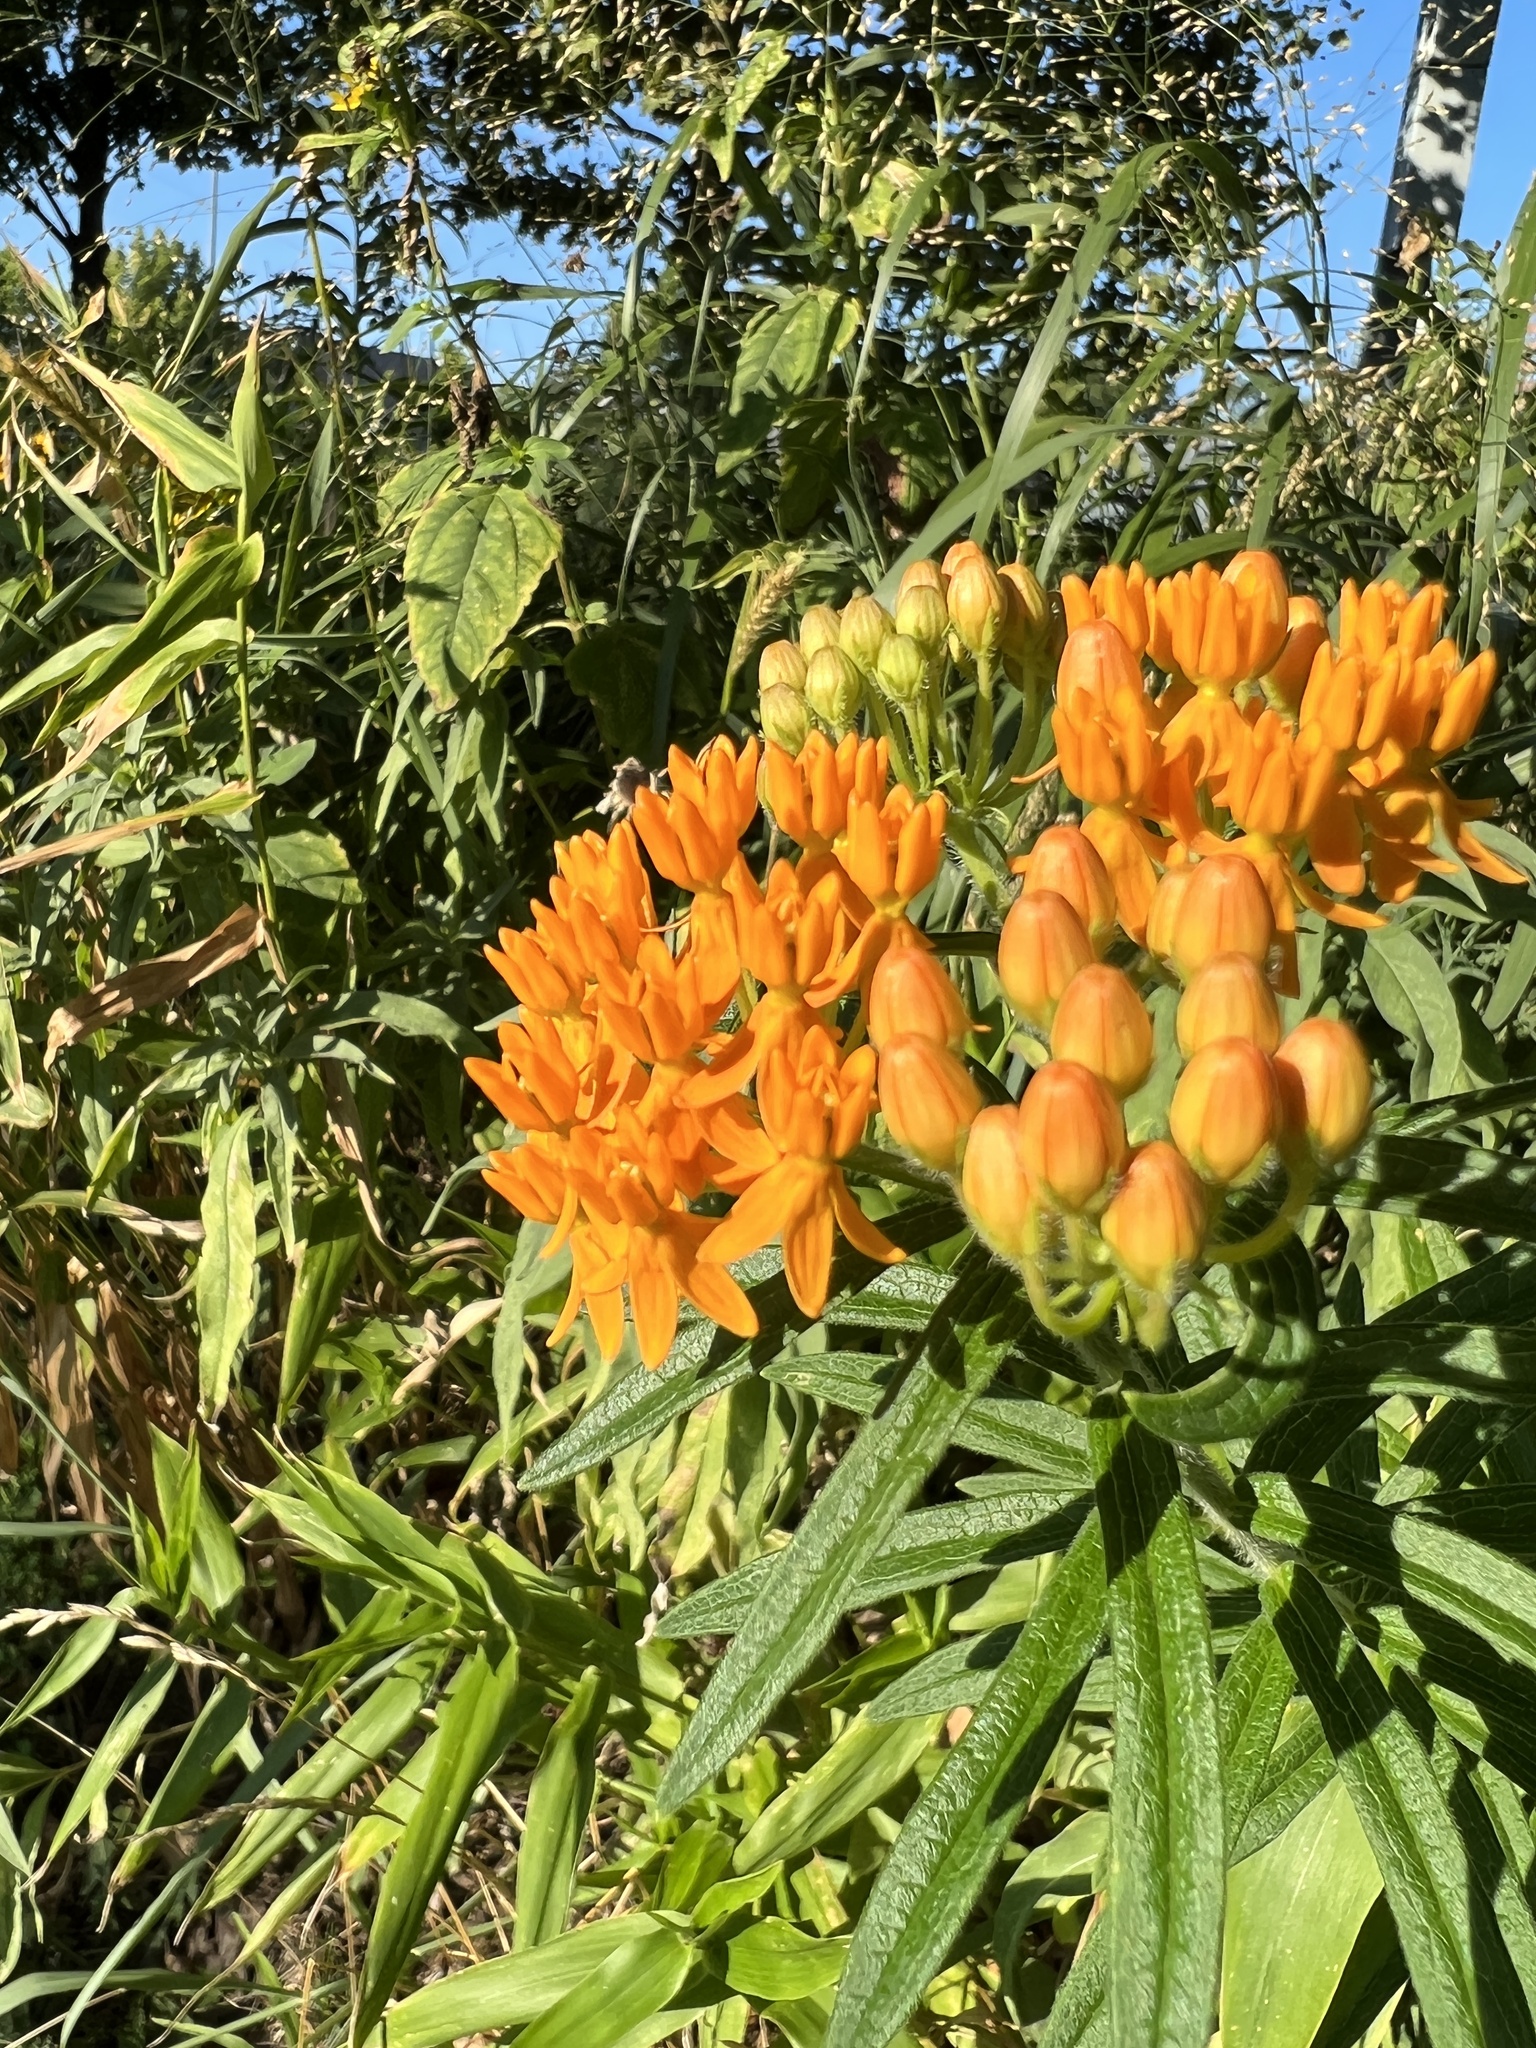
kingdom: Plantae
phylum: Tracheophyta
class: Magnoliopsida
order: Gentianales
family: Apocynaceae
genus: Asclepias
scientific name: Asclepias tuberosa
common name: Butterfly milkweed
